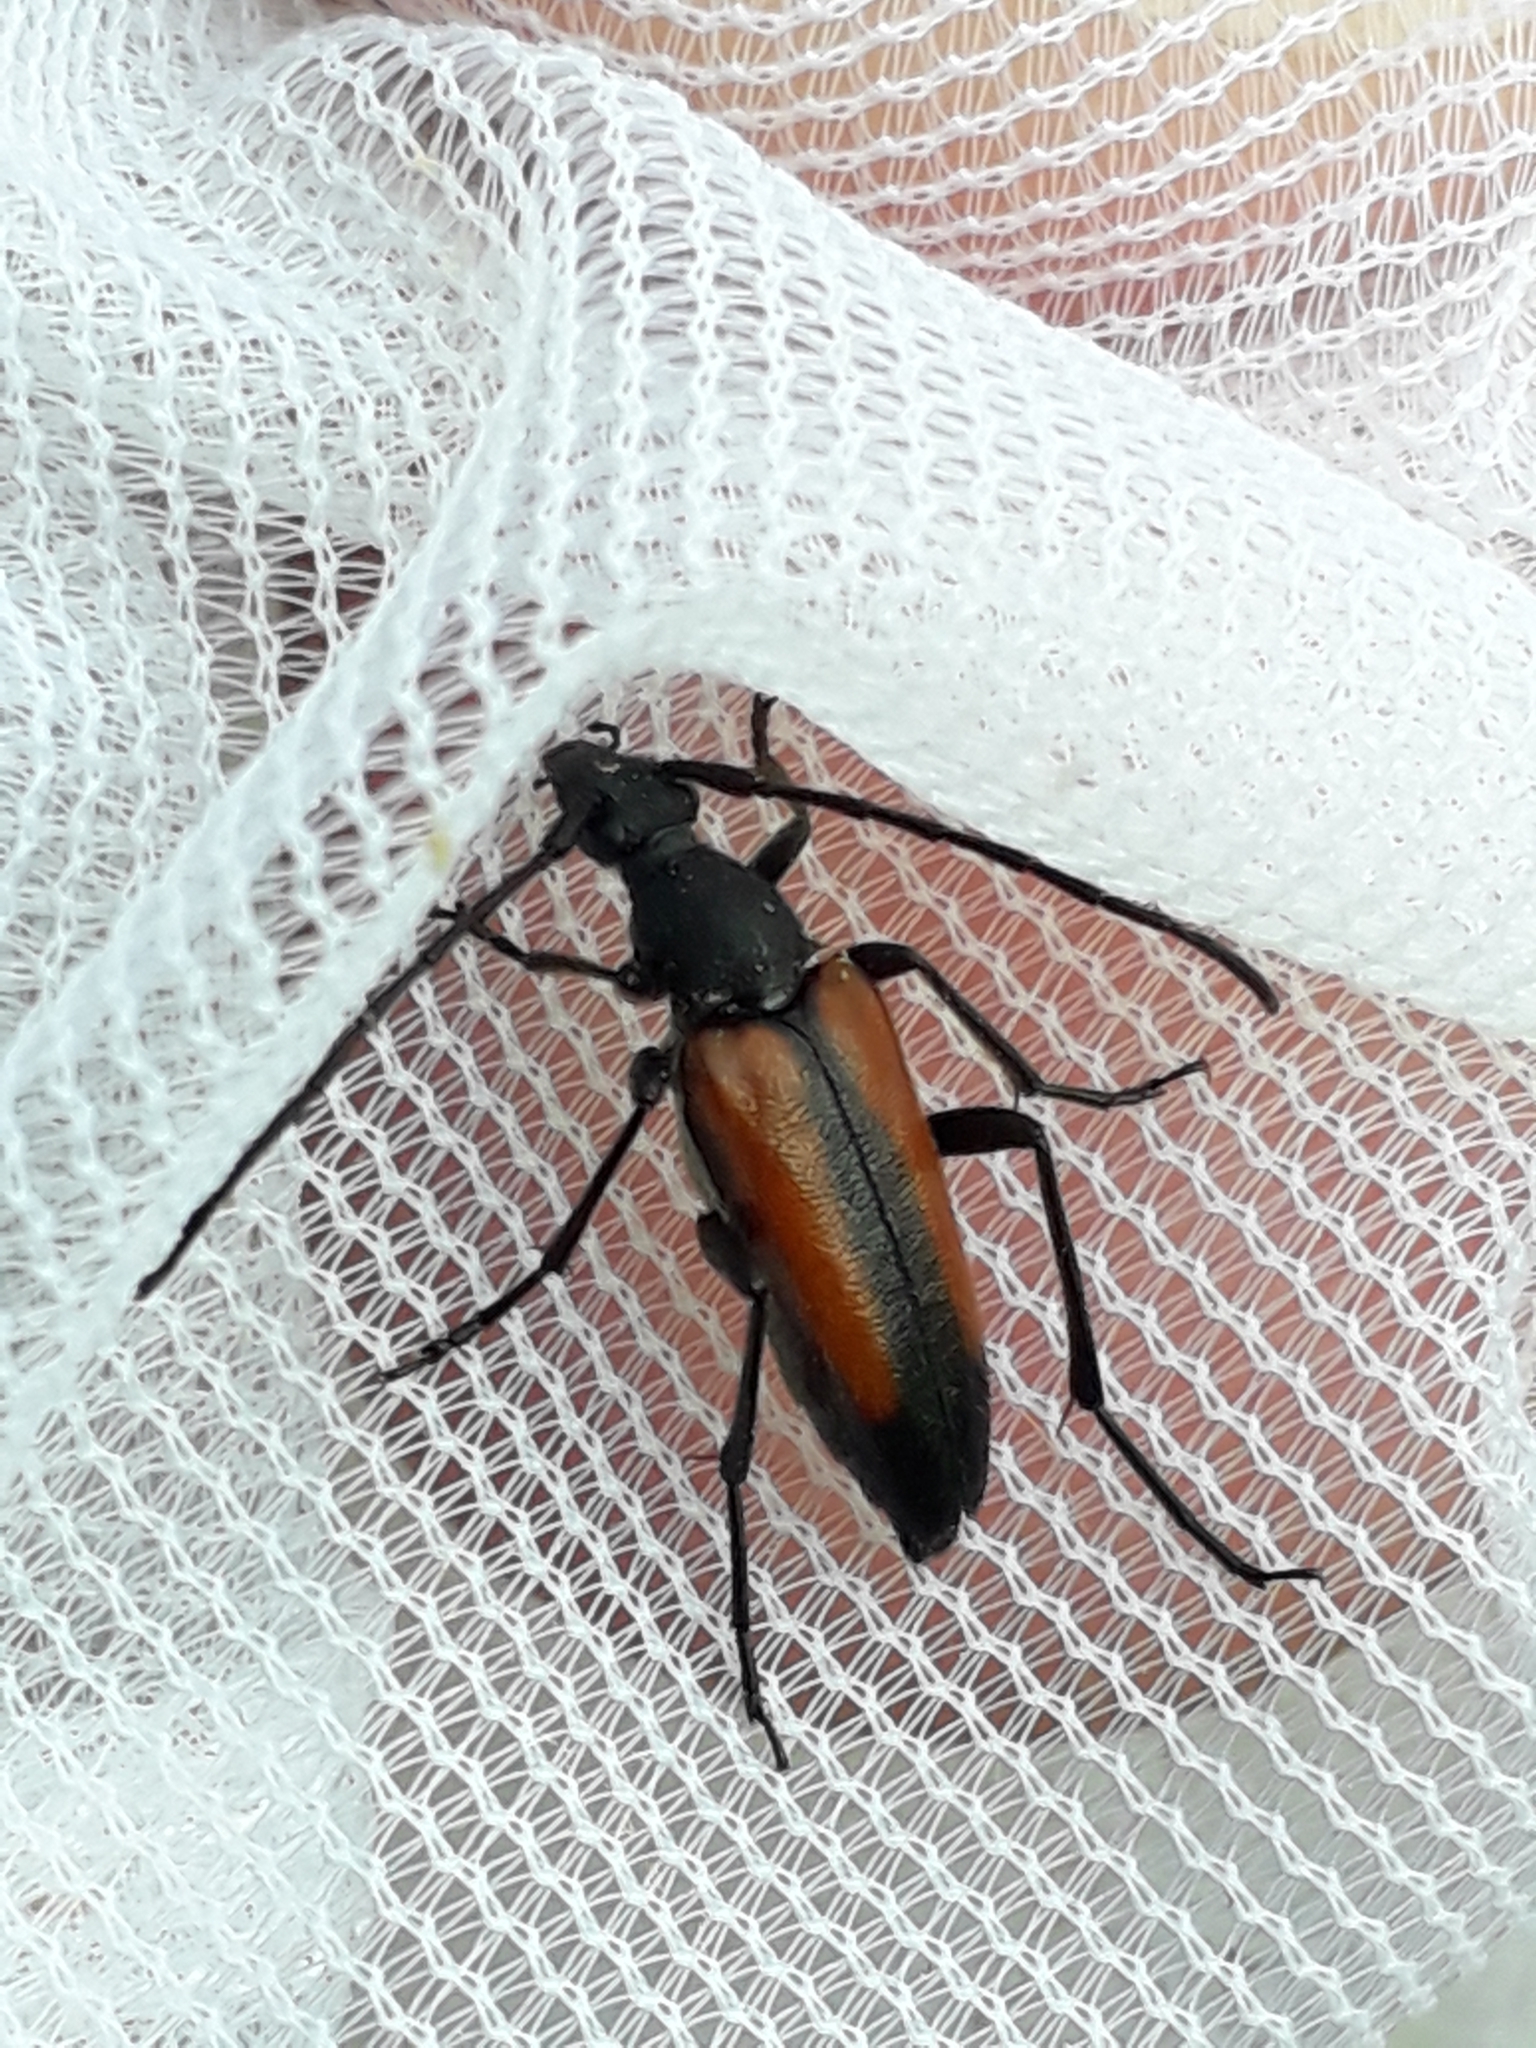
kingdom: Animalia
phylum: Arthropoda
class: Insecta
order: Coleoptera
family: Cerambycidae
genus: Stenurella
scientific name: Stenurella melanura
